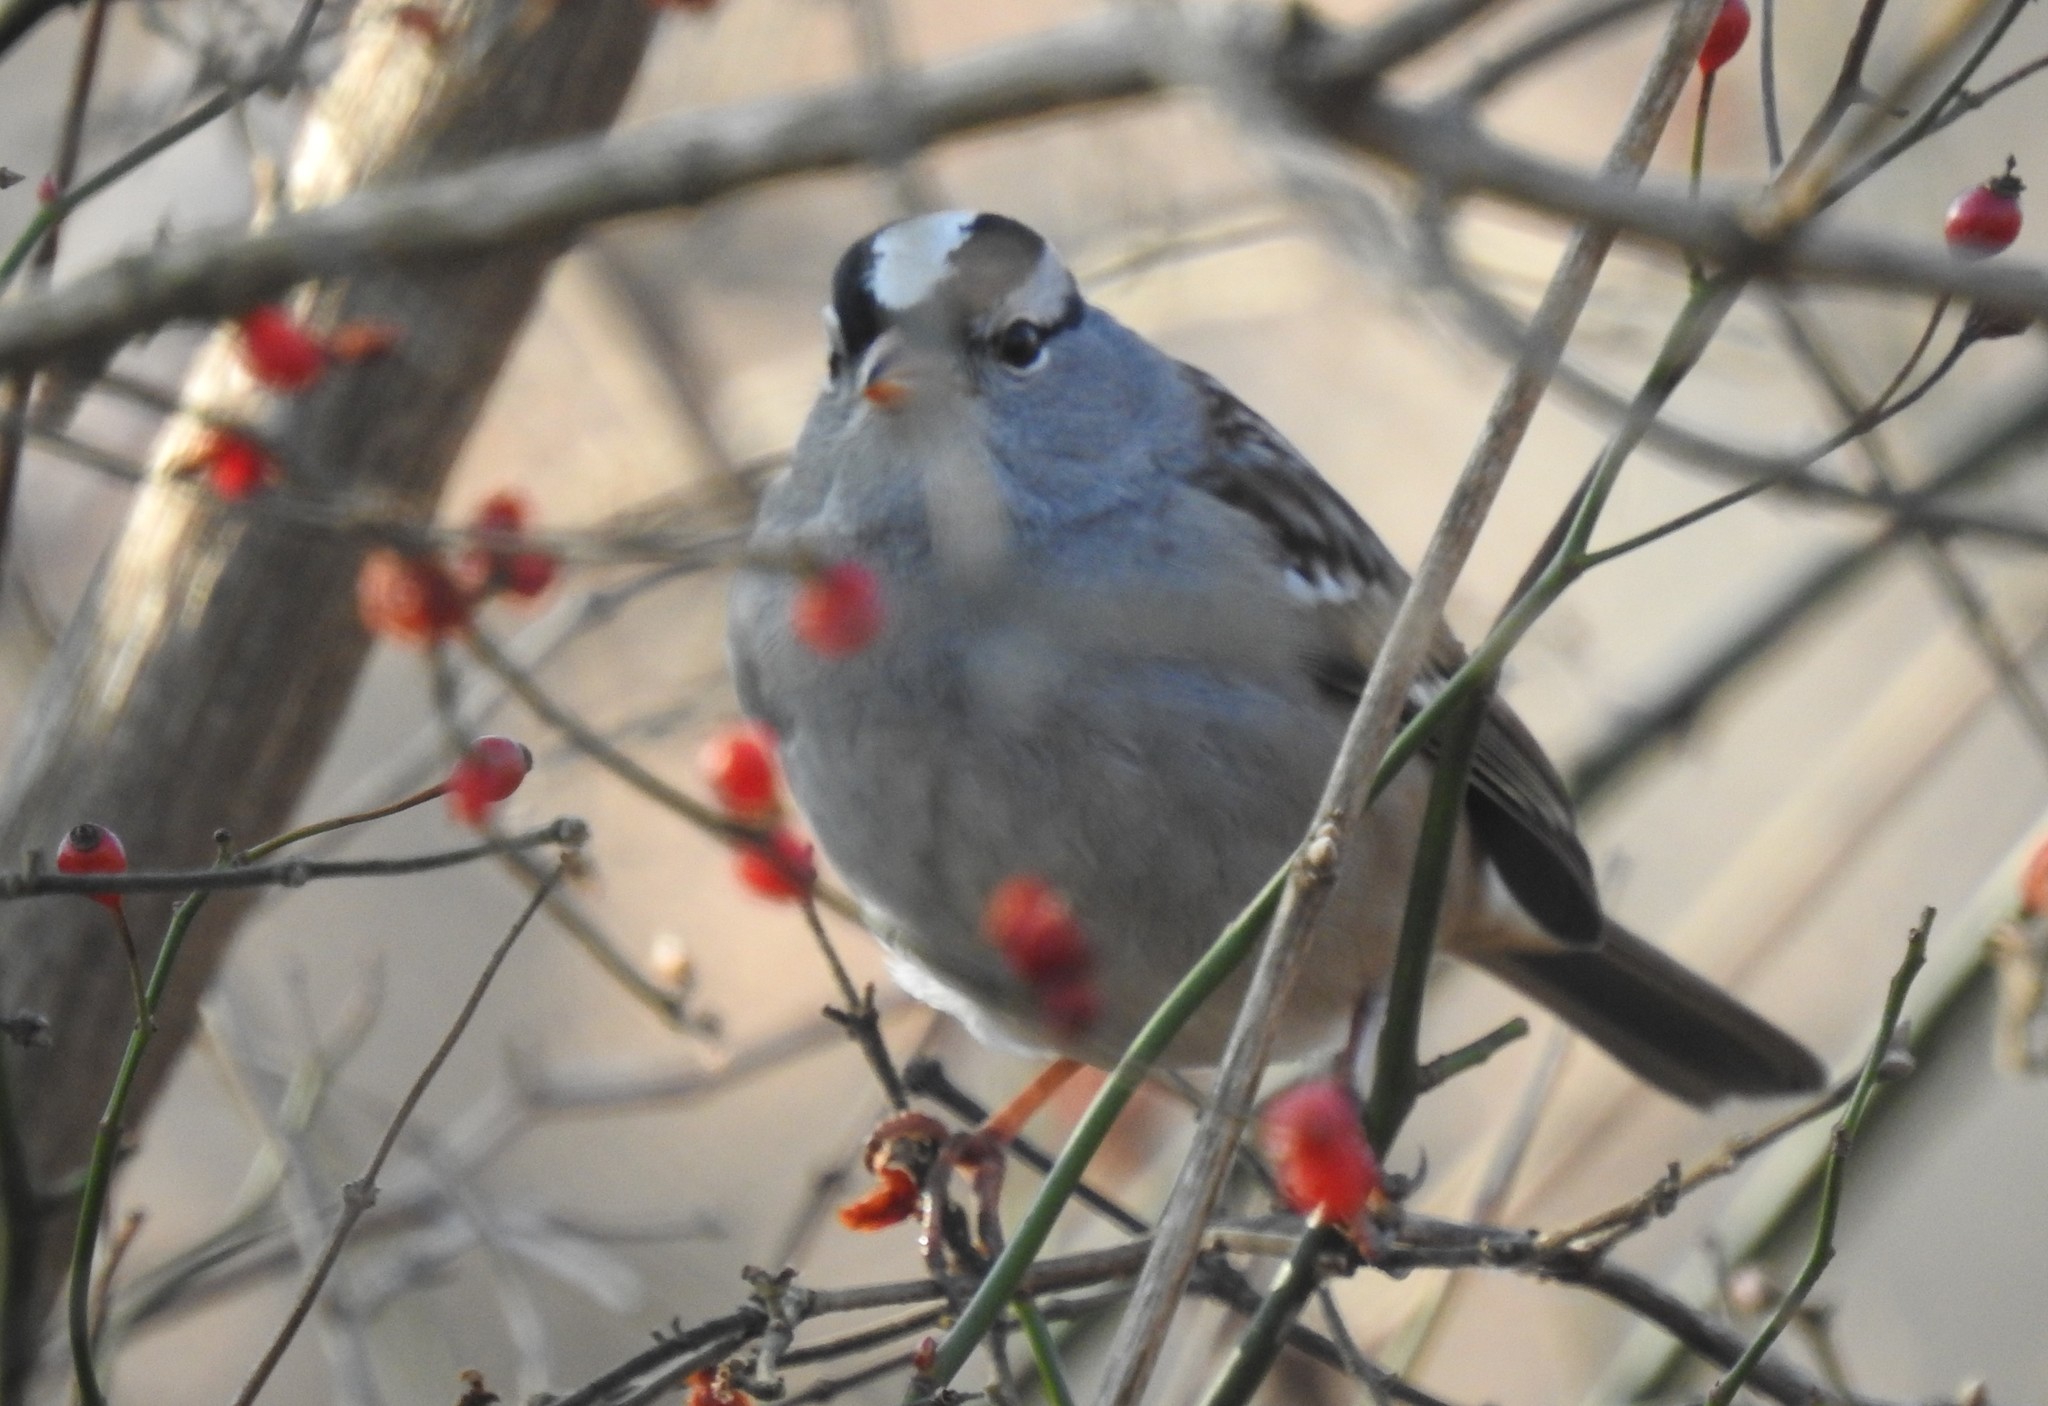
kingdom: Animalia
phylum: Chordata
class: Aves
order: Passeriformes
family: Passerellidae
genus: Zonotrichia
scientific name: Zonotrichia leucophrys
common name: White-crowned sparrow
